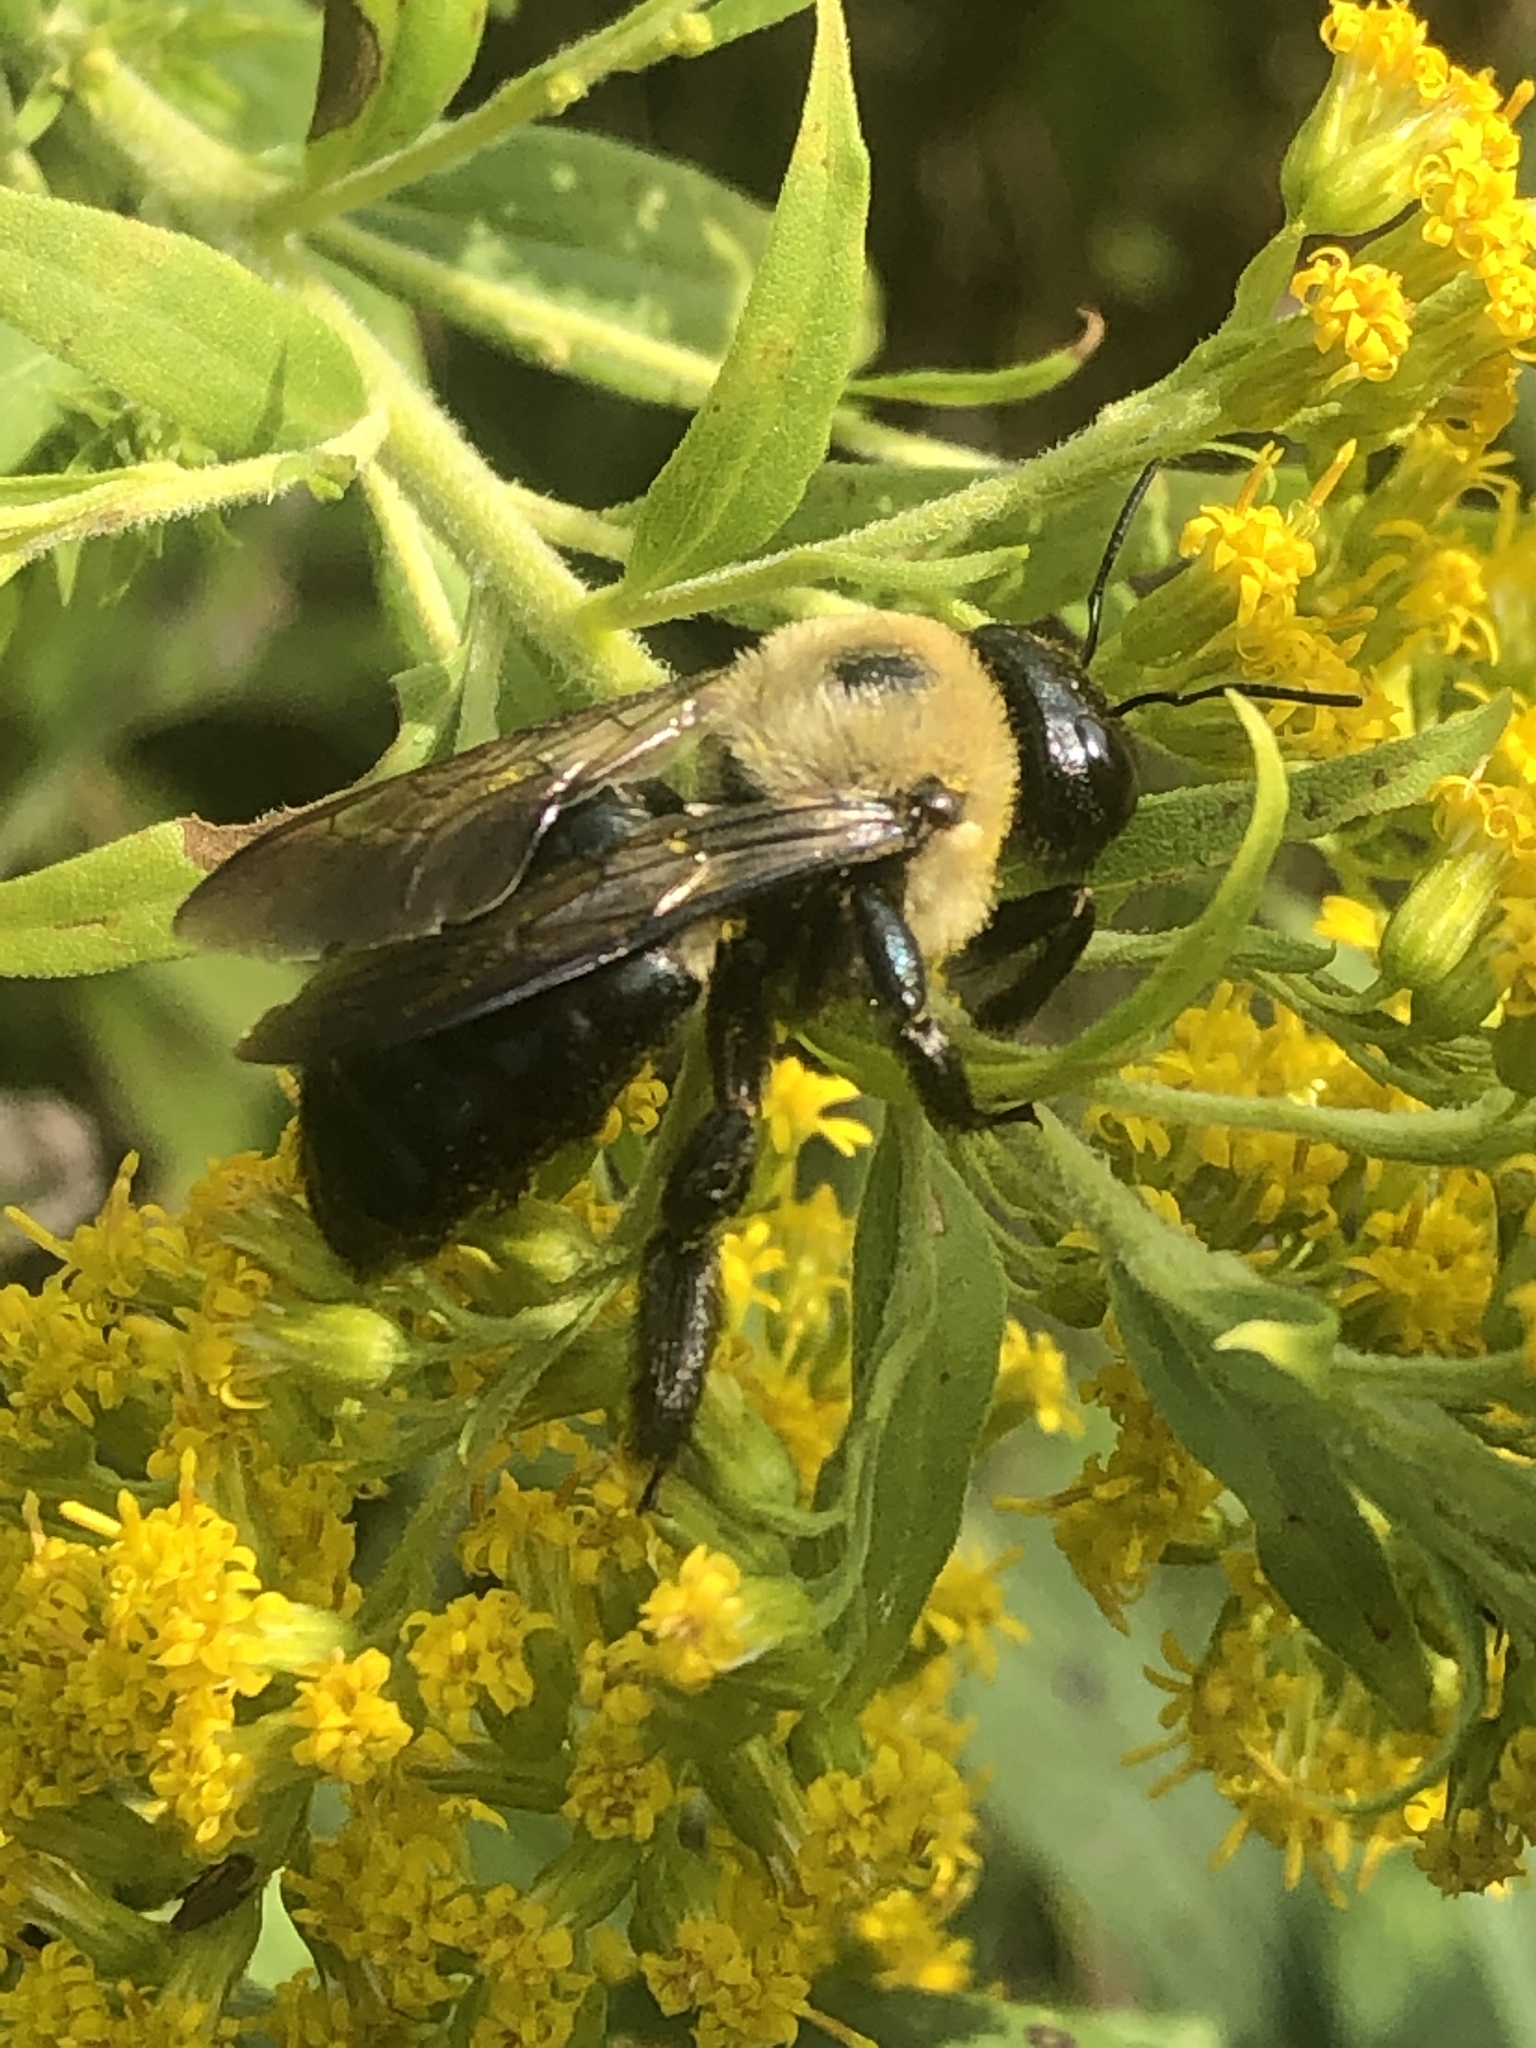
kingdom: Animalia
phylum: Arthropoda
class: Insecta
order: Hymenoptera
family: Apidae
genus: Xylocopa
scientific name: Xylocopa virginica
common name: Carpenter bee
